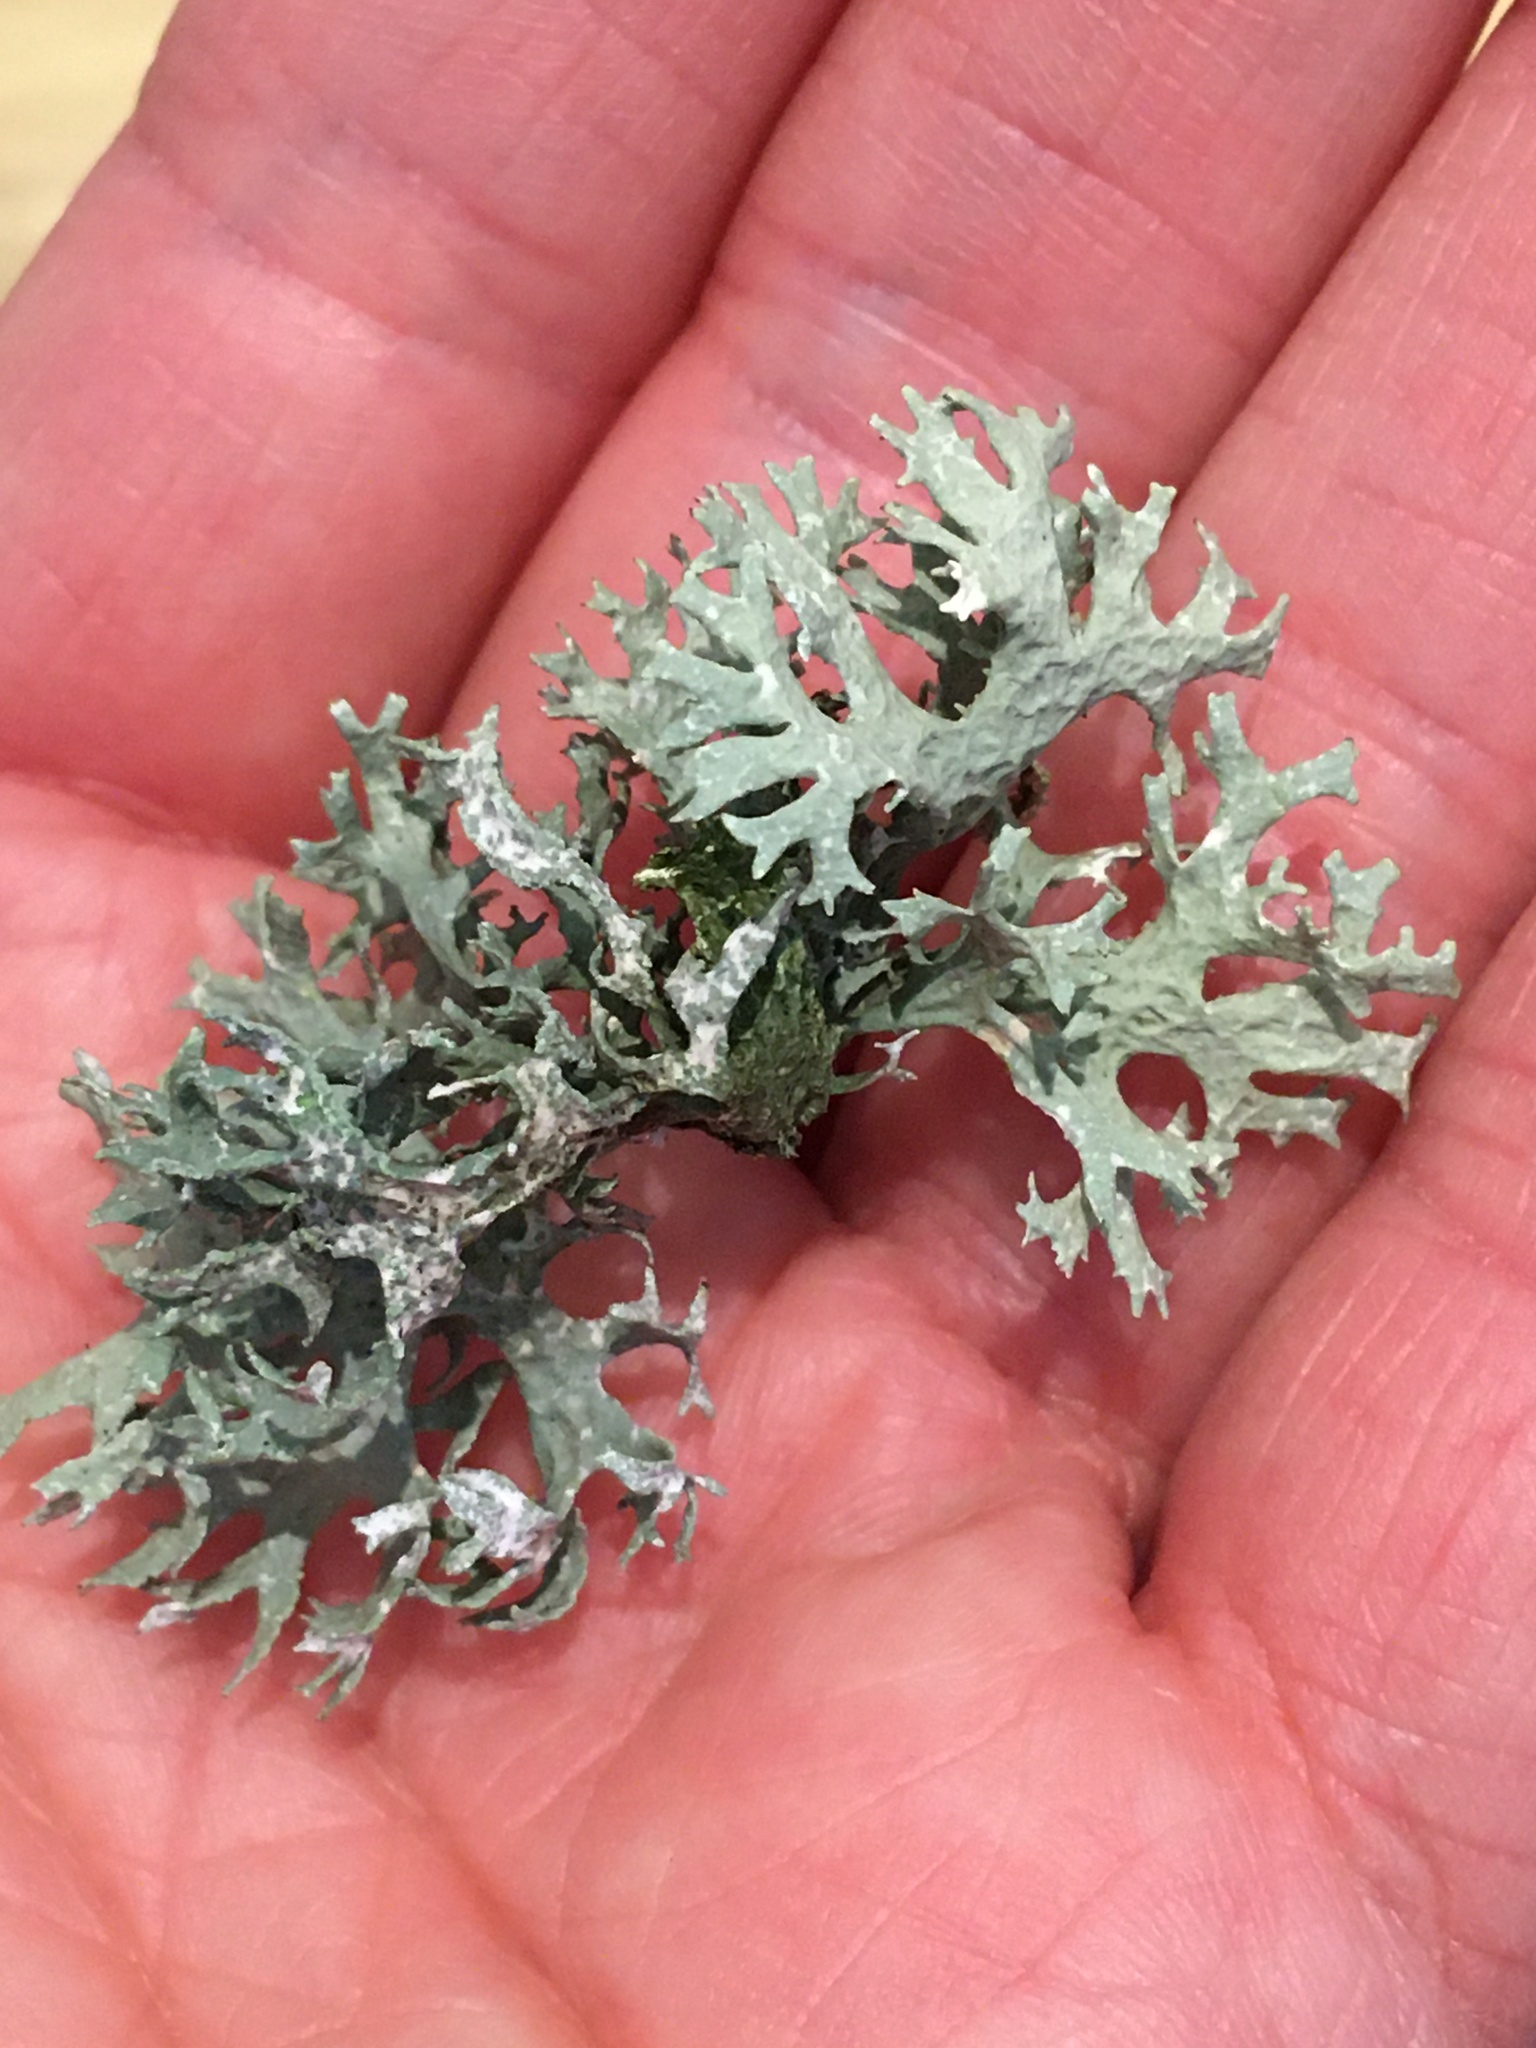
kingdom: Fungi
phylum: Ascomycota
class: Lecanoromycetes
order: Lecanorales
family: Parmeliaceae
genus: Evernia
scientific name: Evernia prunastri
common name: Oak moss
